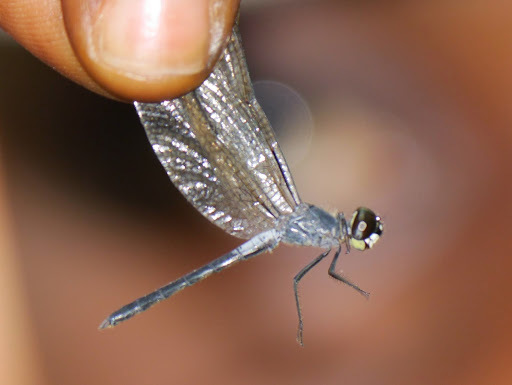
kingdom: Animalia
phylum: Arthropoda
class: Insecta
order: Odonata
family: Libellulidae
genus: Thermochoria
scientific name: Thermochoria equivocata
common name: Dash-winged piedface
